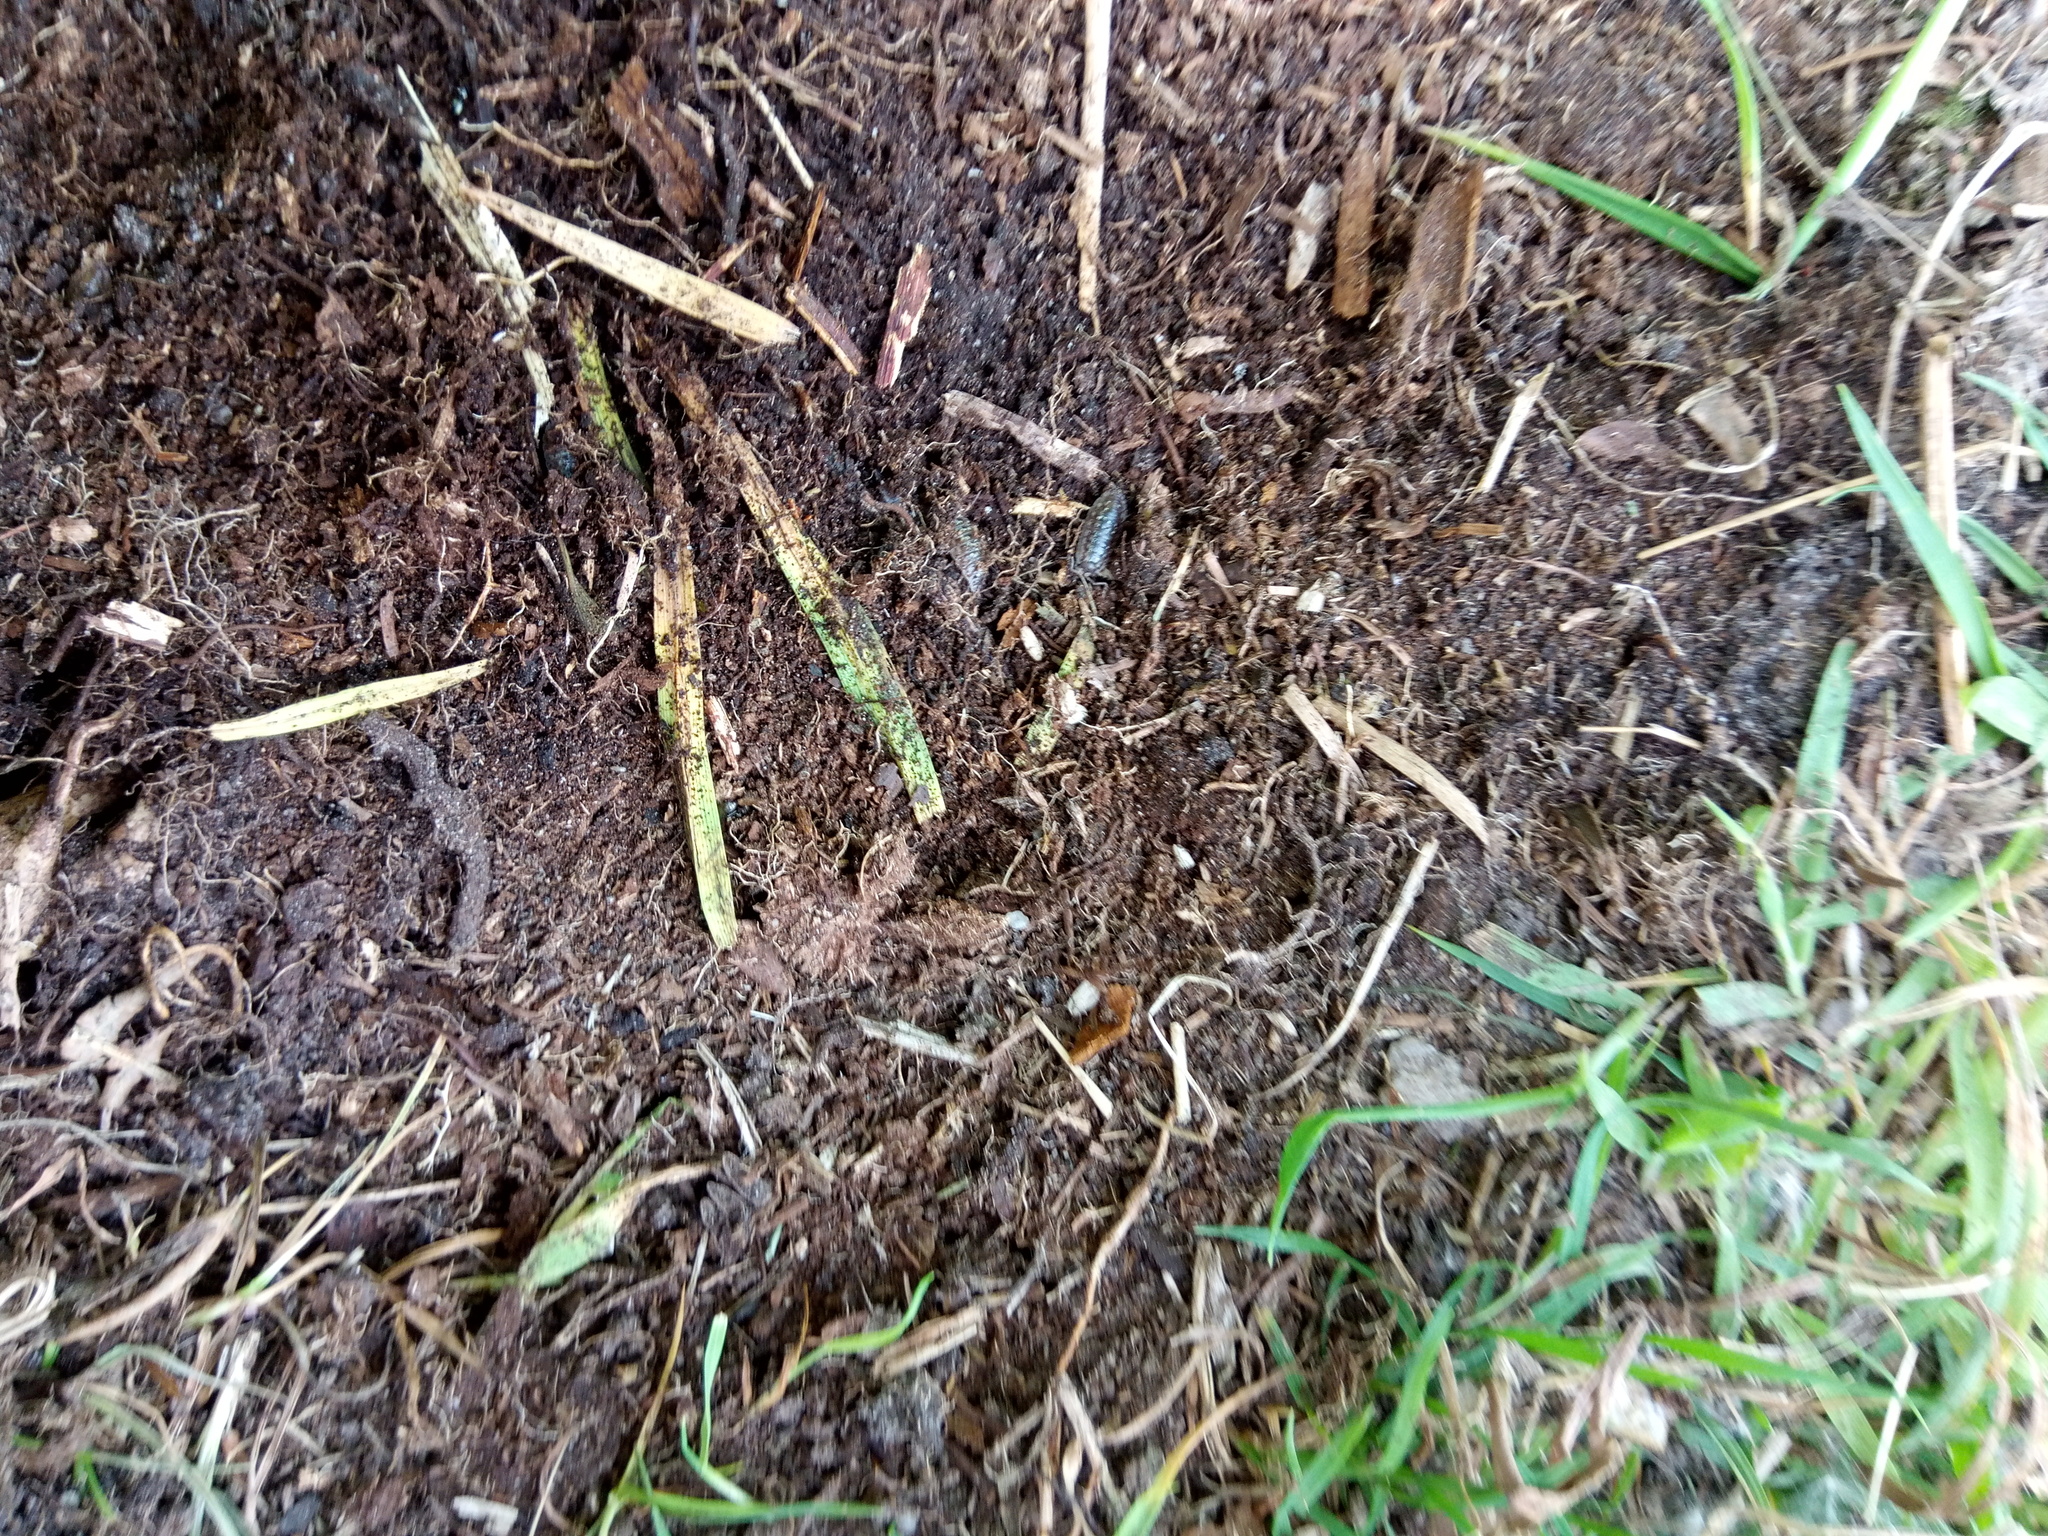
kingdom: Animalia
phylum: Arthropoda
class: Malacostraca
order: Isopoda
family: Oniscidae
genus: Oniscus
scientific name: Oniscus asellus
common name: Common shiny woodlouse
